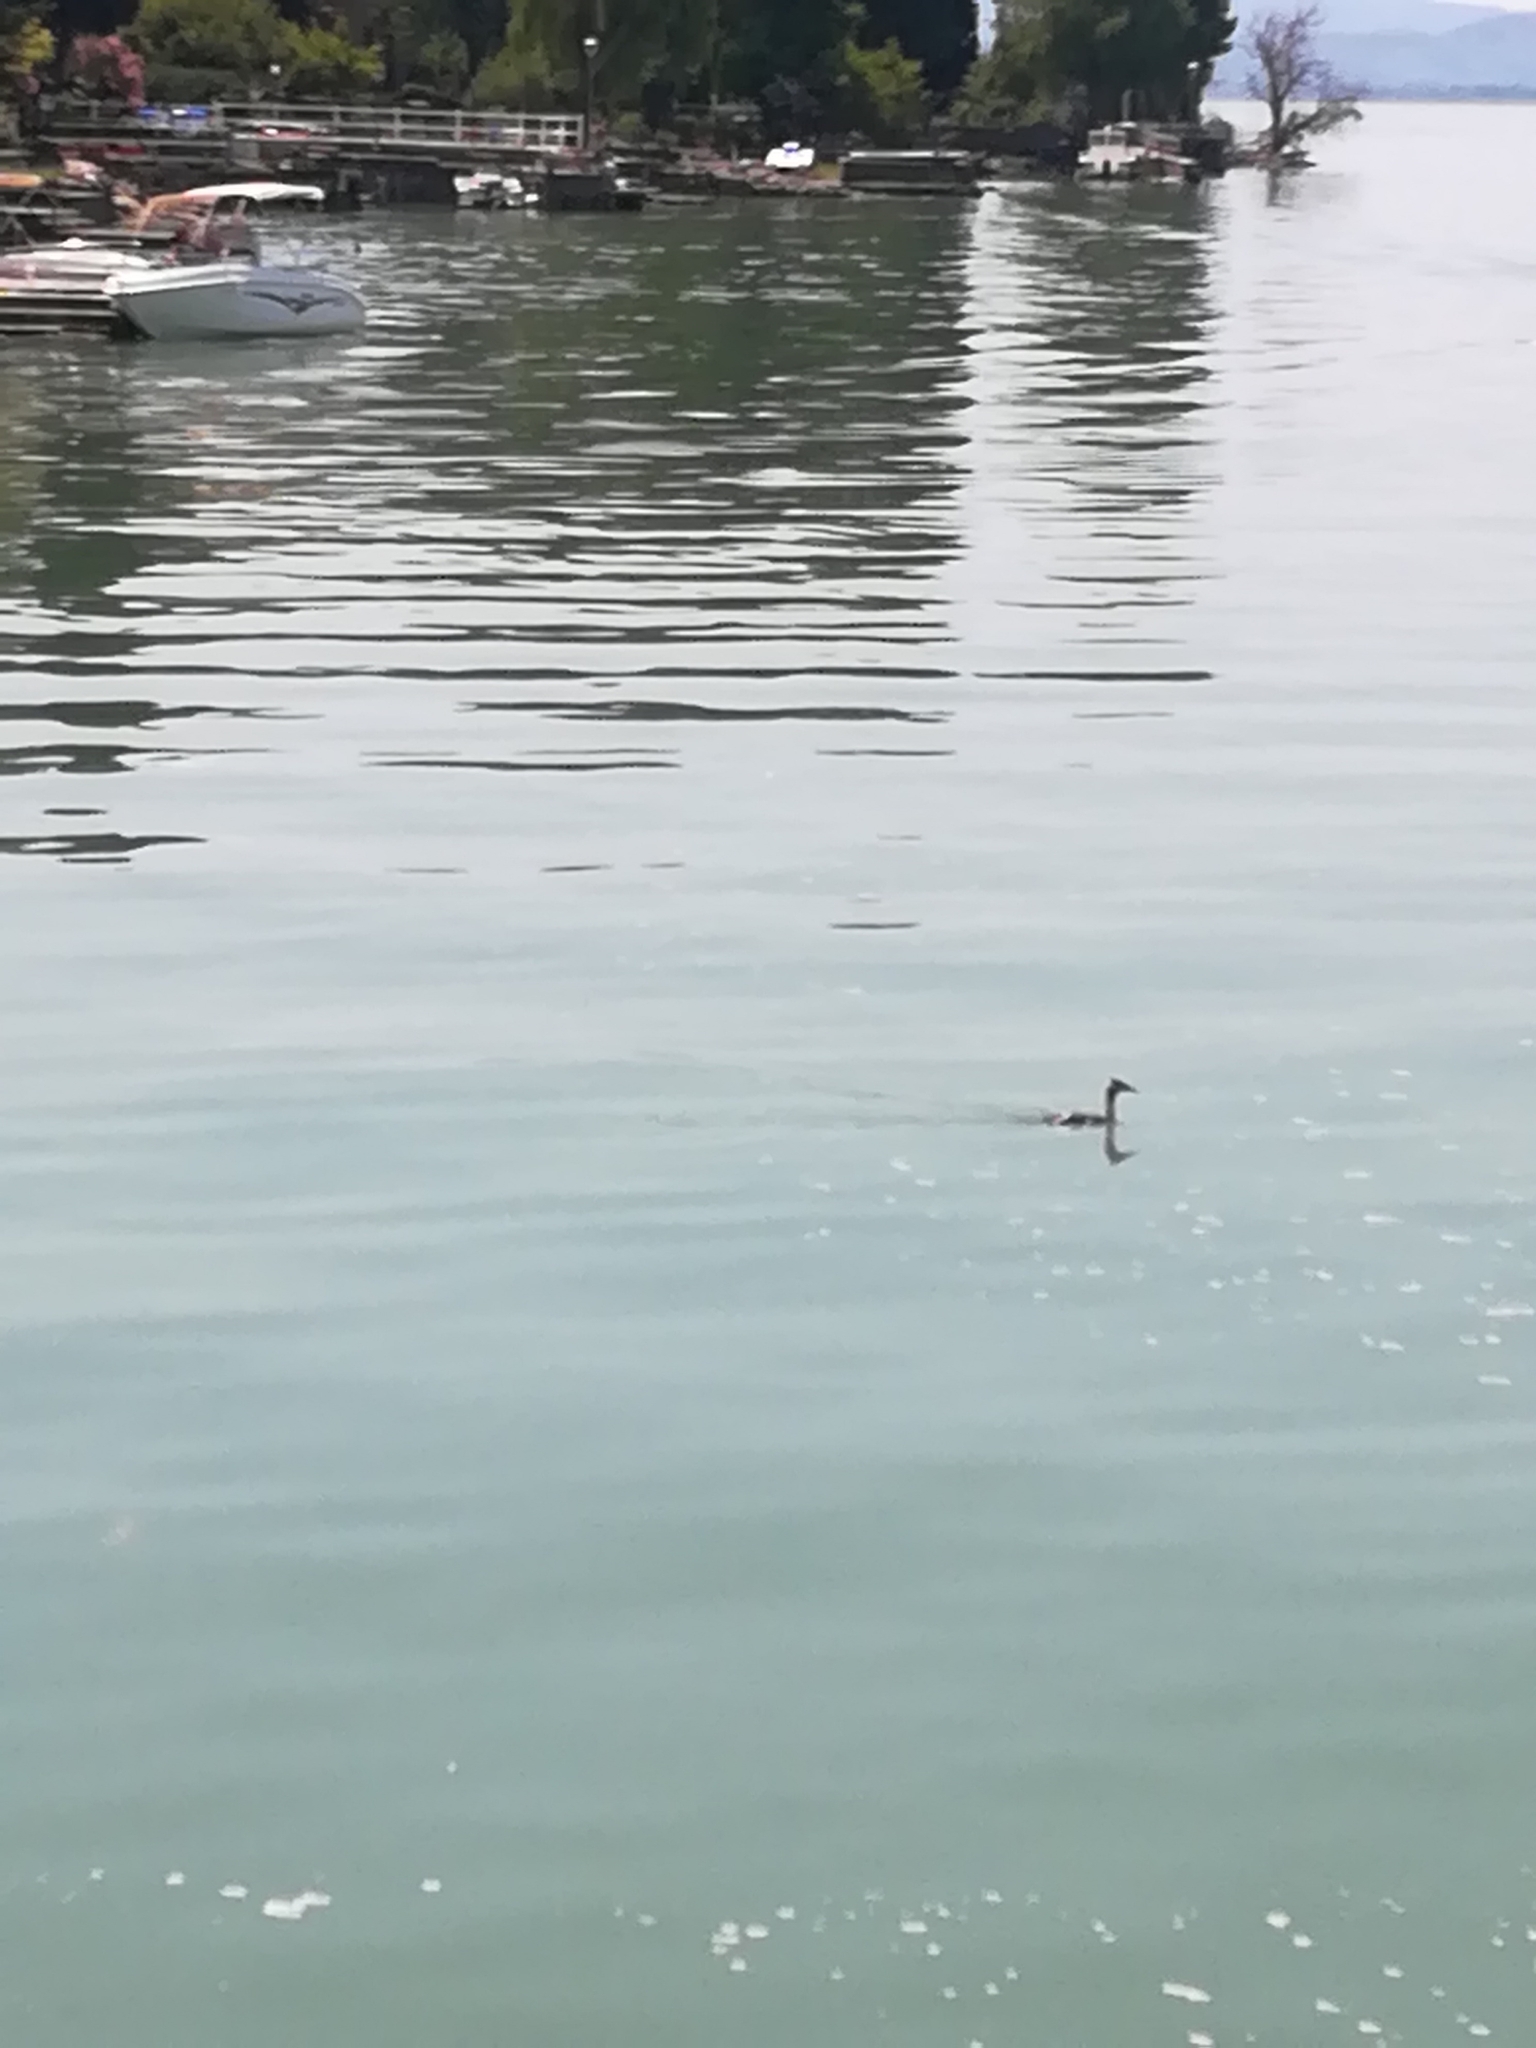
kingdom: Animalia
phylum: Chordata
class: Aves
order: Podicipediformes
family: Podicipedidae
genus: Podiceps
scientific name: Podiceps cristatus
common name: Great crested grebe
